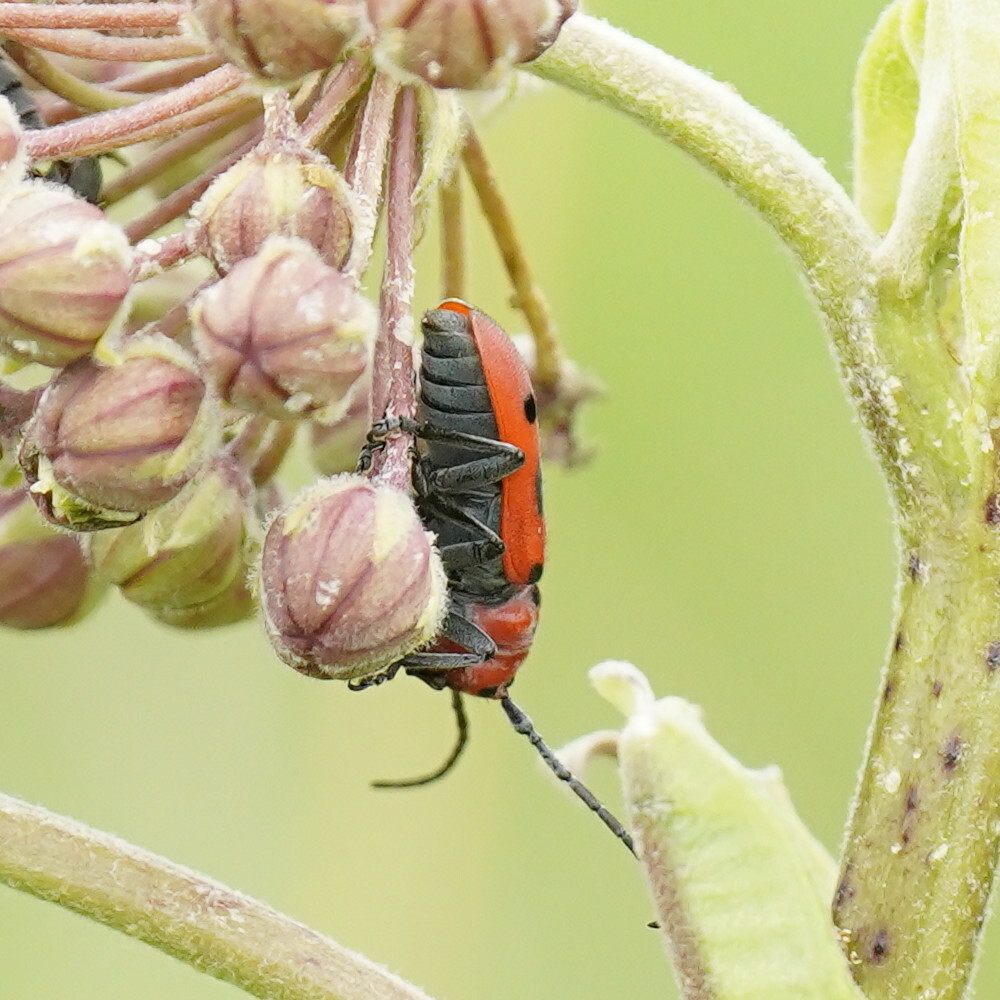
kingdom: Animalia
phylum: Arthropoda
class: Insecta
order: Coleoptera
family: Cerambycidae
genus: Tetraopes
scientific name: Tetraopes tetrophthalmus
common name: Red milkweed beetle
